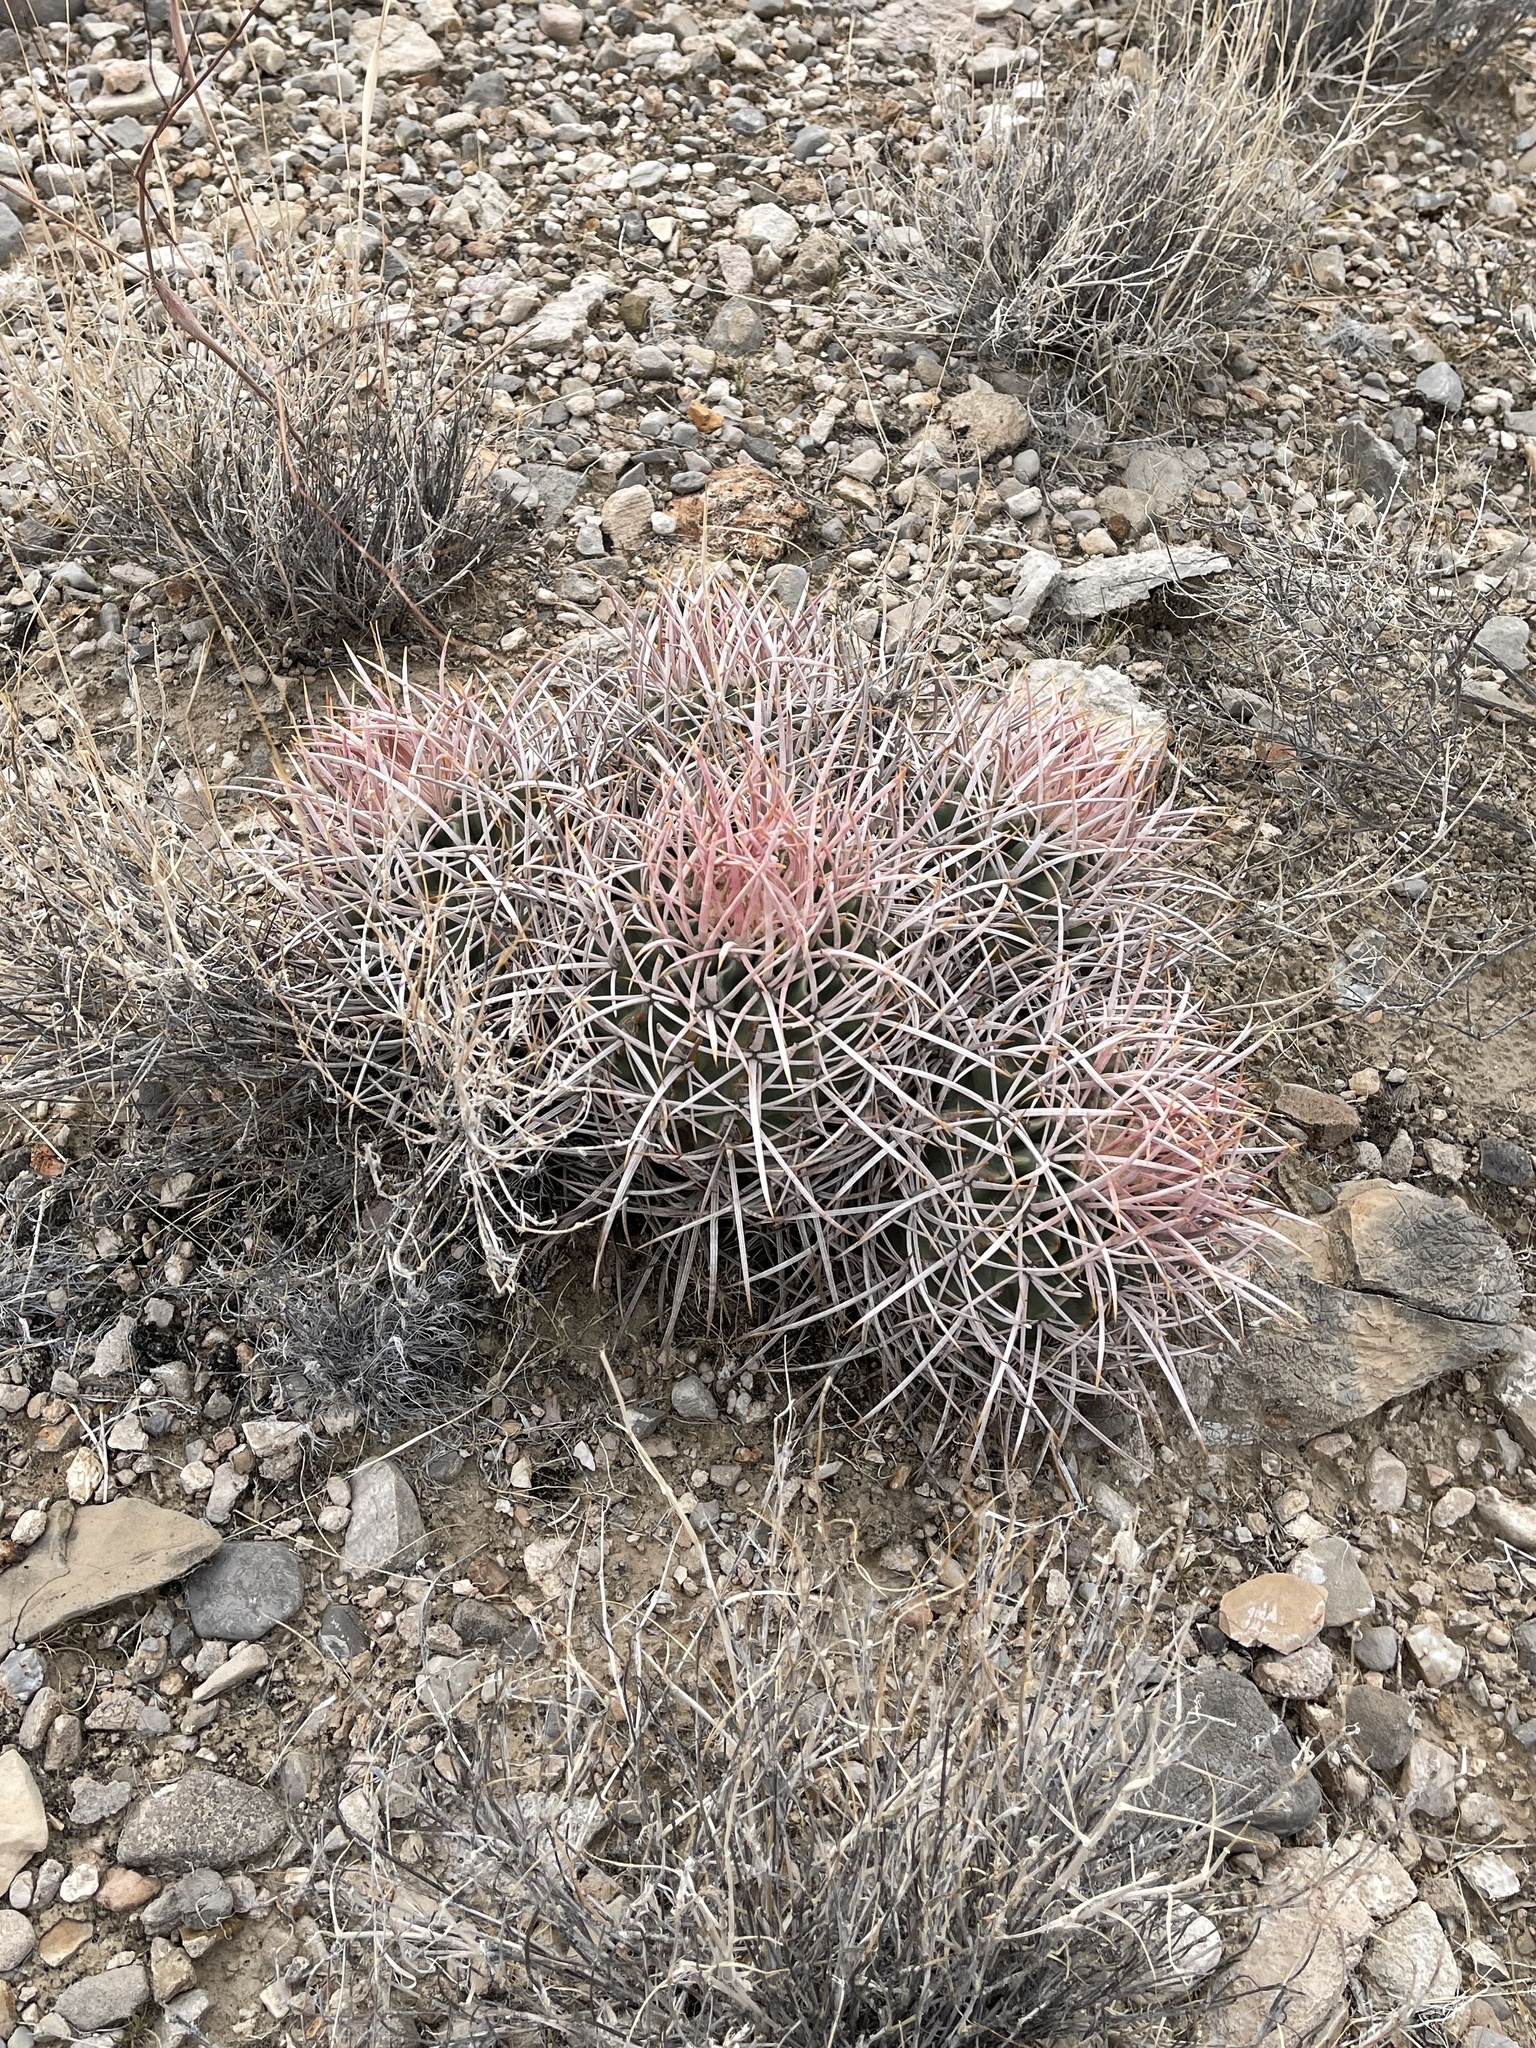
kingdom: Plantae
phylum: Tracheophyta
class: Magnoliopsida
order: Caryophyllales
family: Cactaceae
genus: Echinocactus
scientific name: Echinocactus polycephalus
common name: Cottontop cactus
